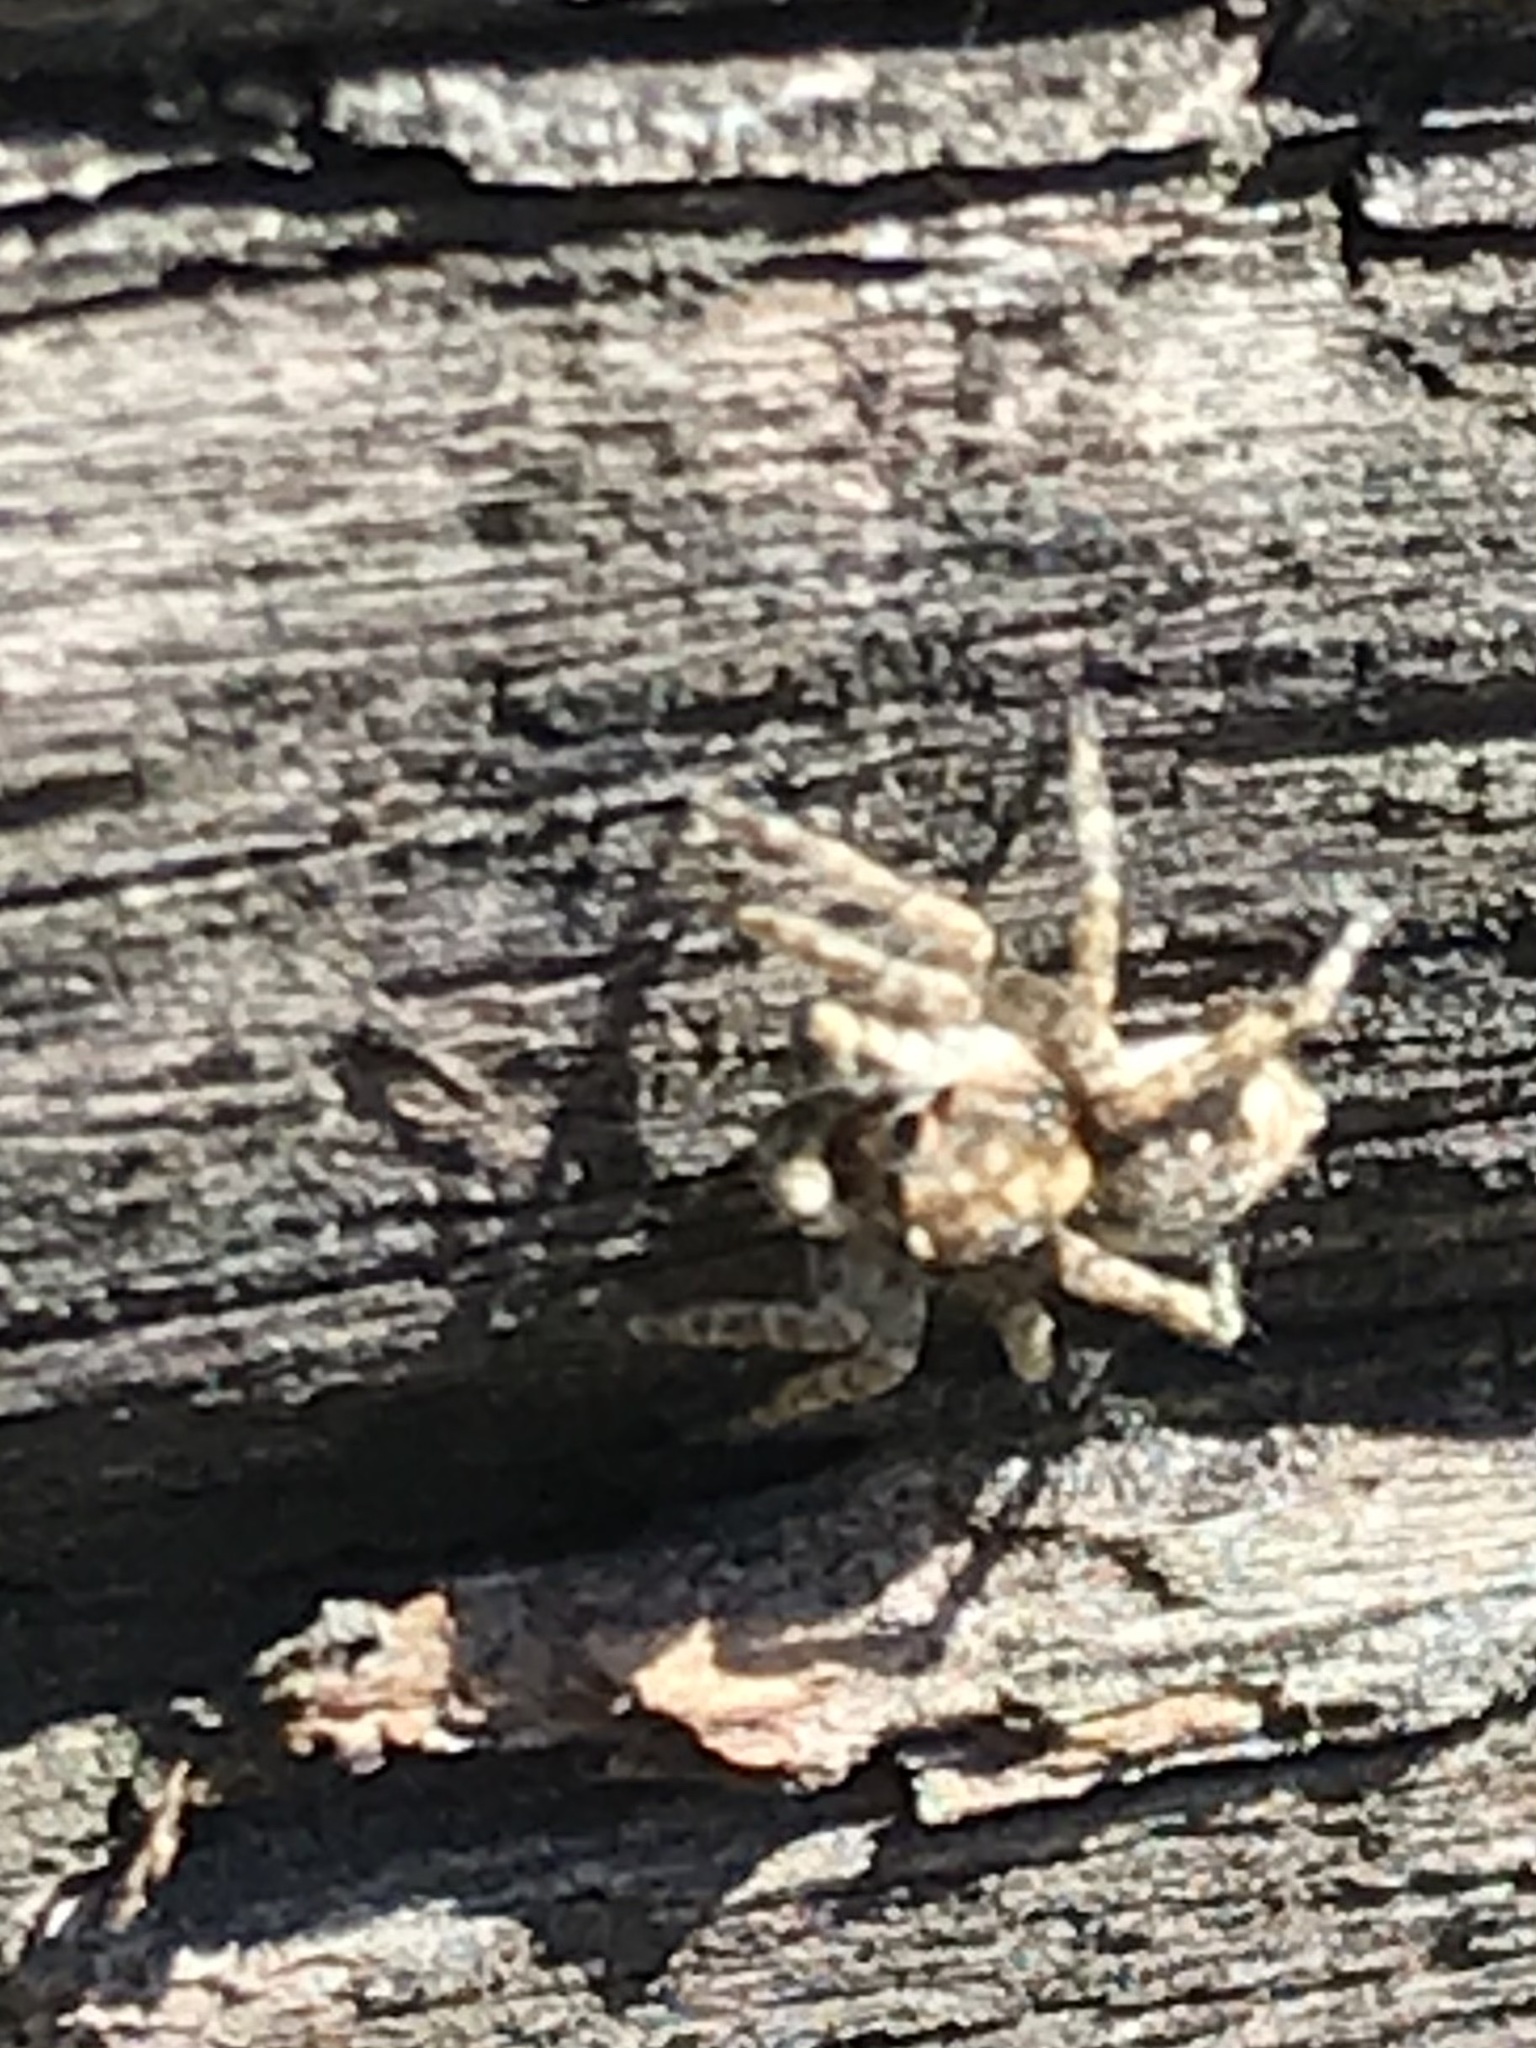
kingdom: Animalia
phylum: Arthropoda
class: Arachnida
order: Araneae
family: Salticidae
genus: Attulus
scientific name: Attulus fasciger
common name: Asiatic wall jumping spider
